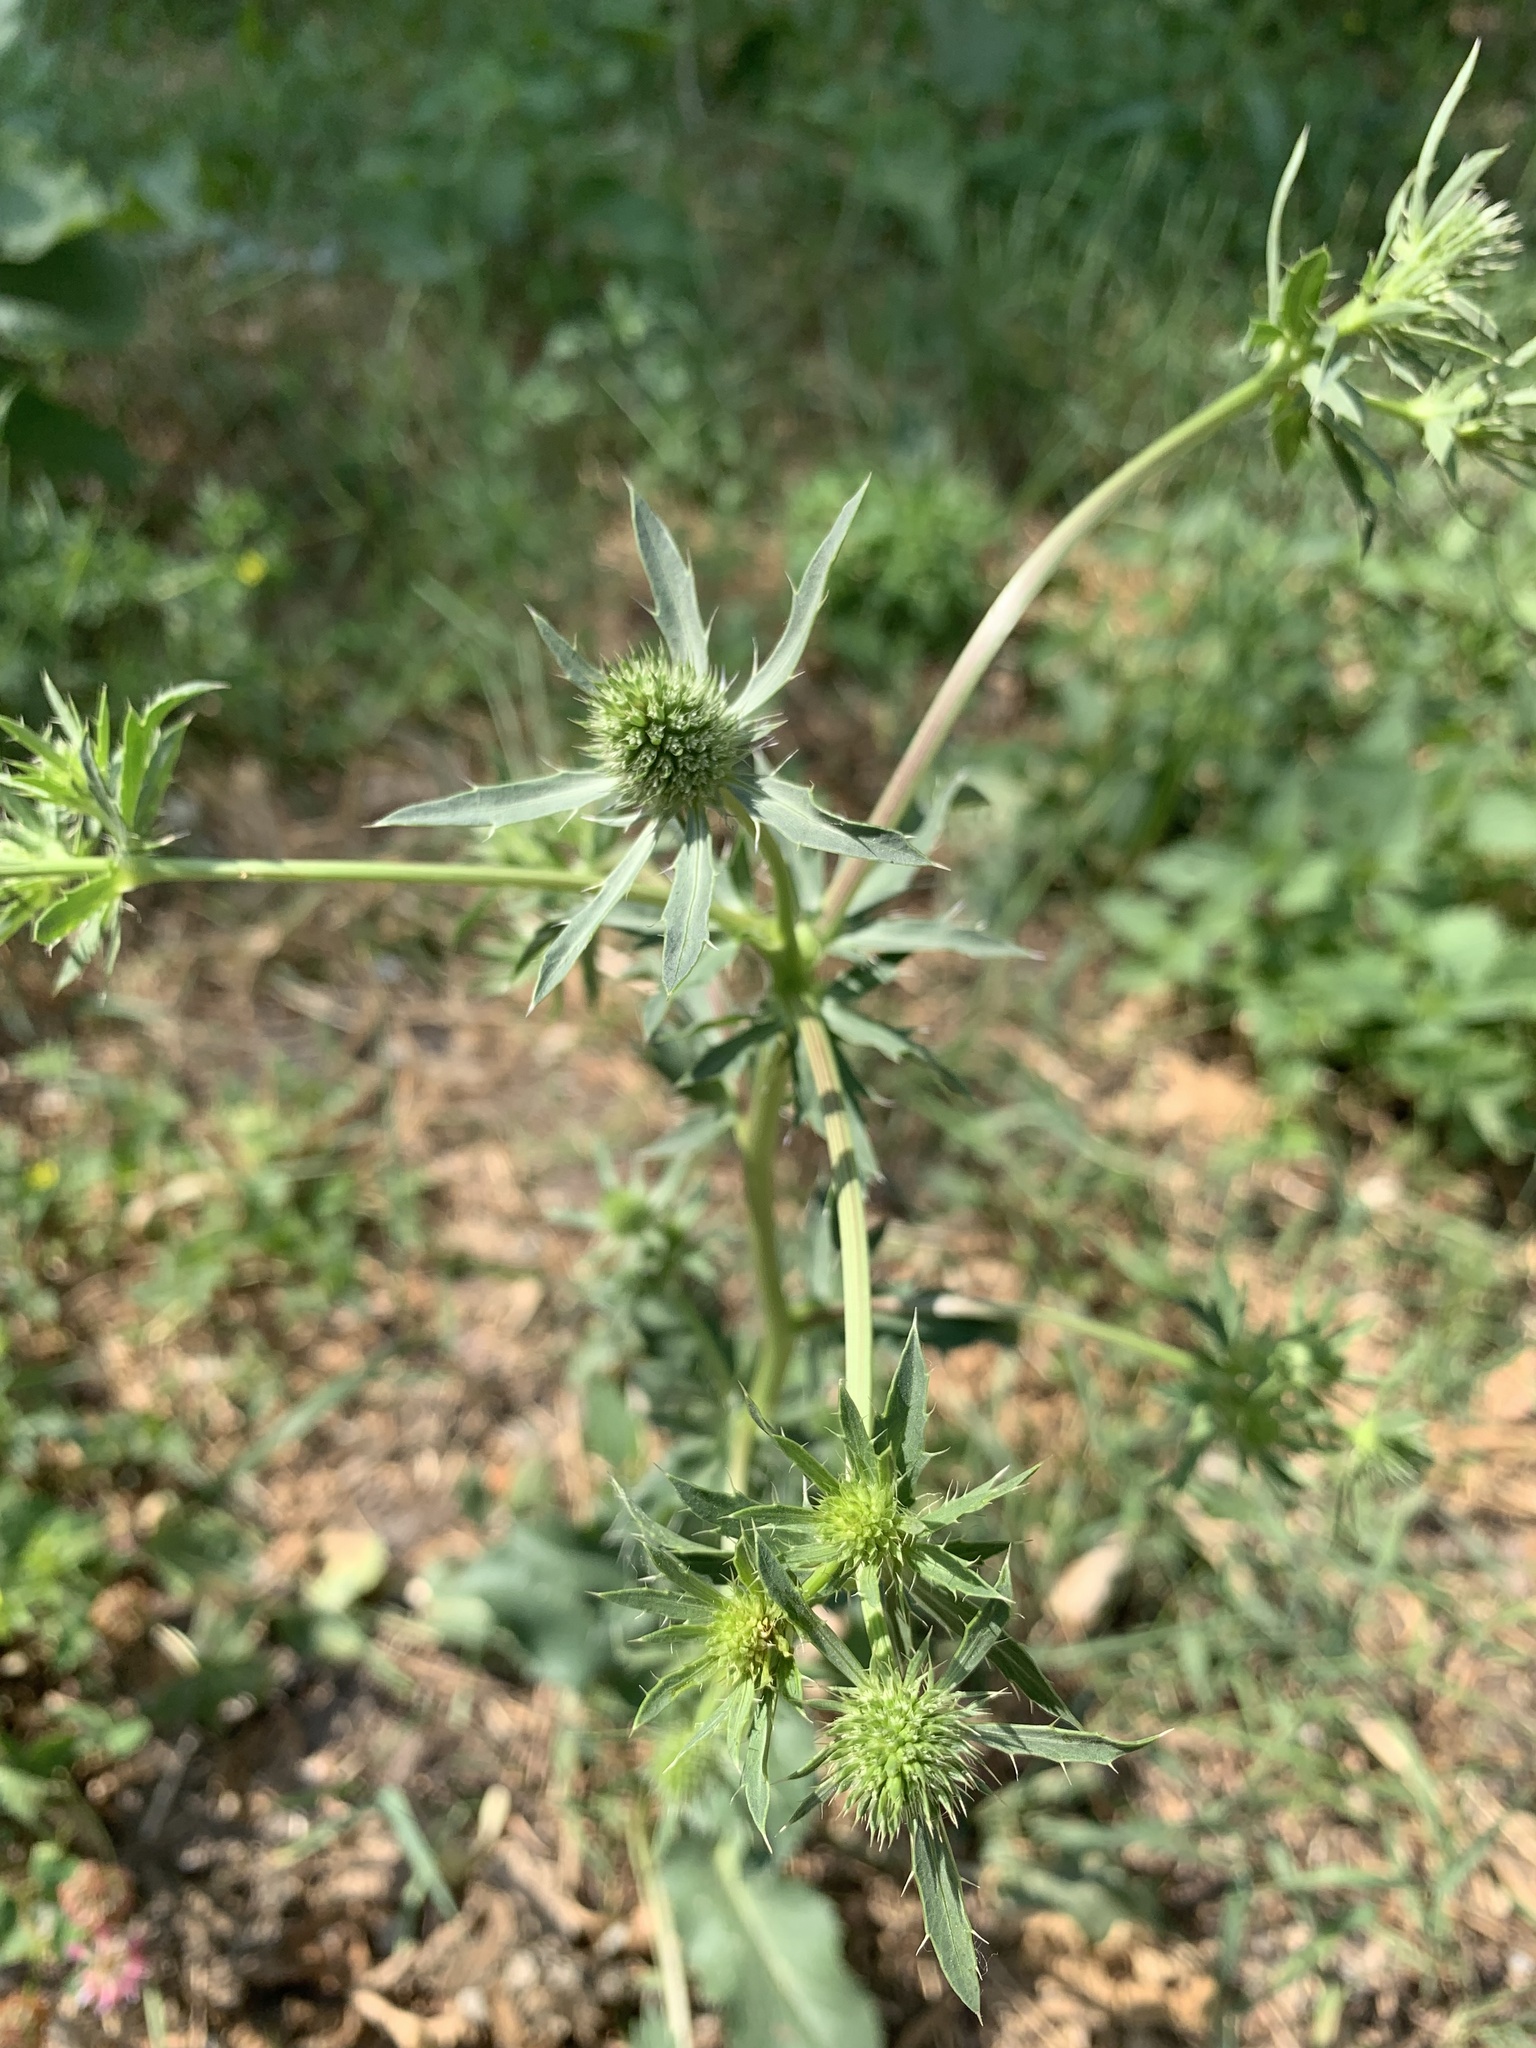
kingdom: Plantae
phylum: Tracheophyta
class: Magnoliopsida
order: Apiales
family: Apiaceae
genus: Eryngium
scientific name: Eryngium planum
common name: Blue eryngo
